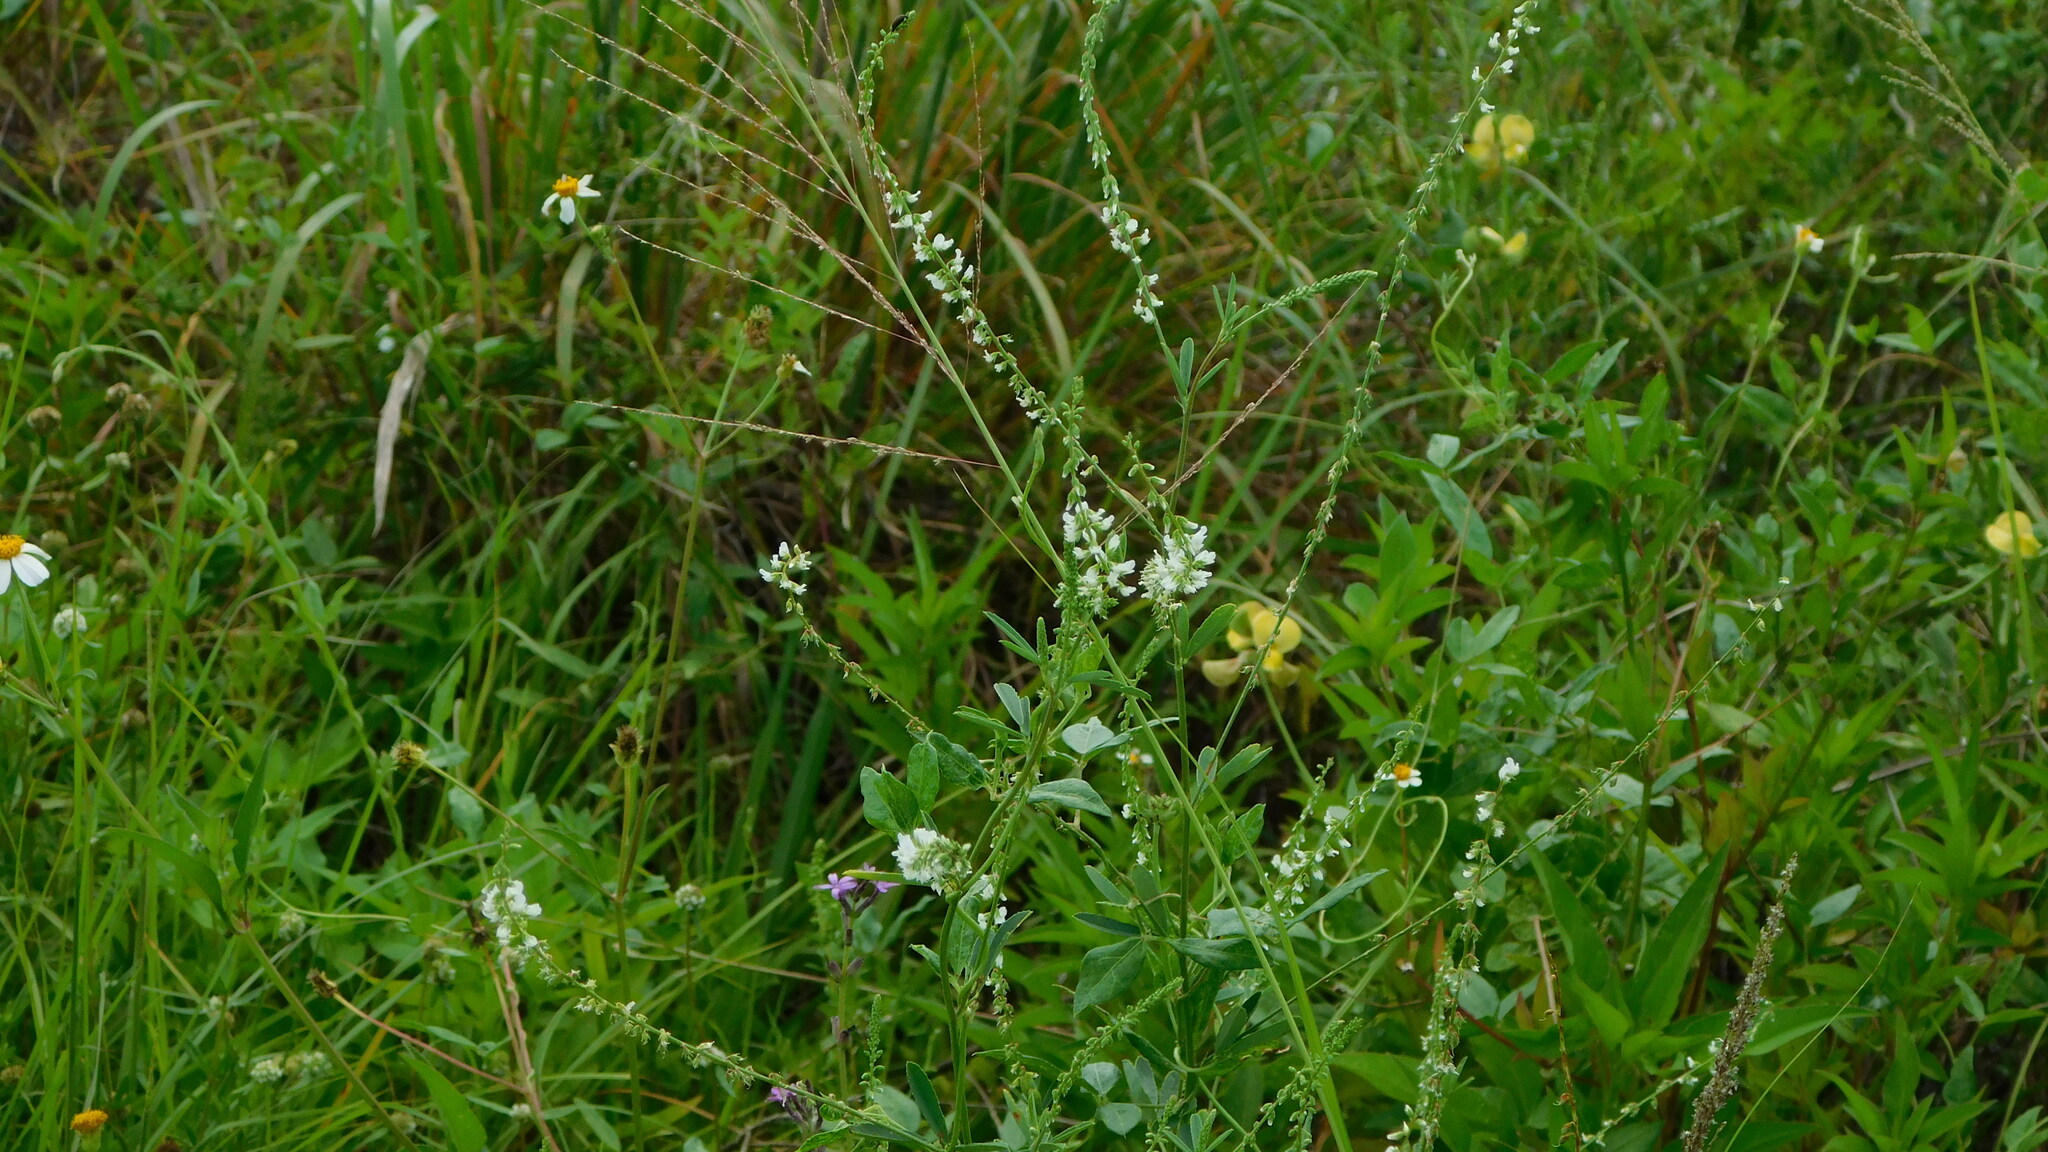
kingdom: Plantae
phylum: Tracheophyta
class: Magnoliopsida
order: Fabales
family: Fabaceae
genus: Melilotus
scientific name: Melilotus albus
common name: White melilot
